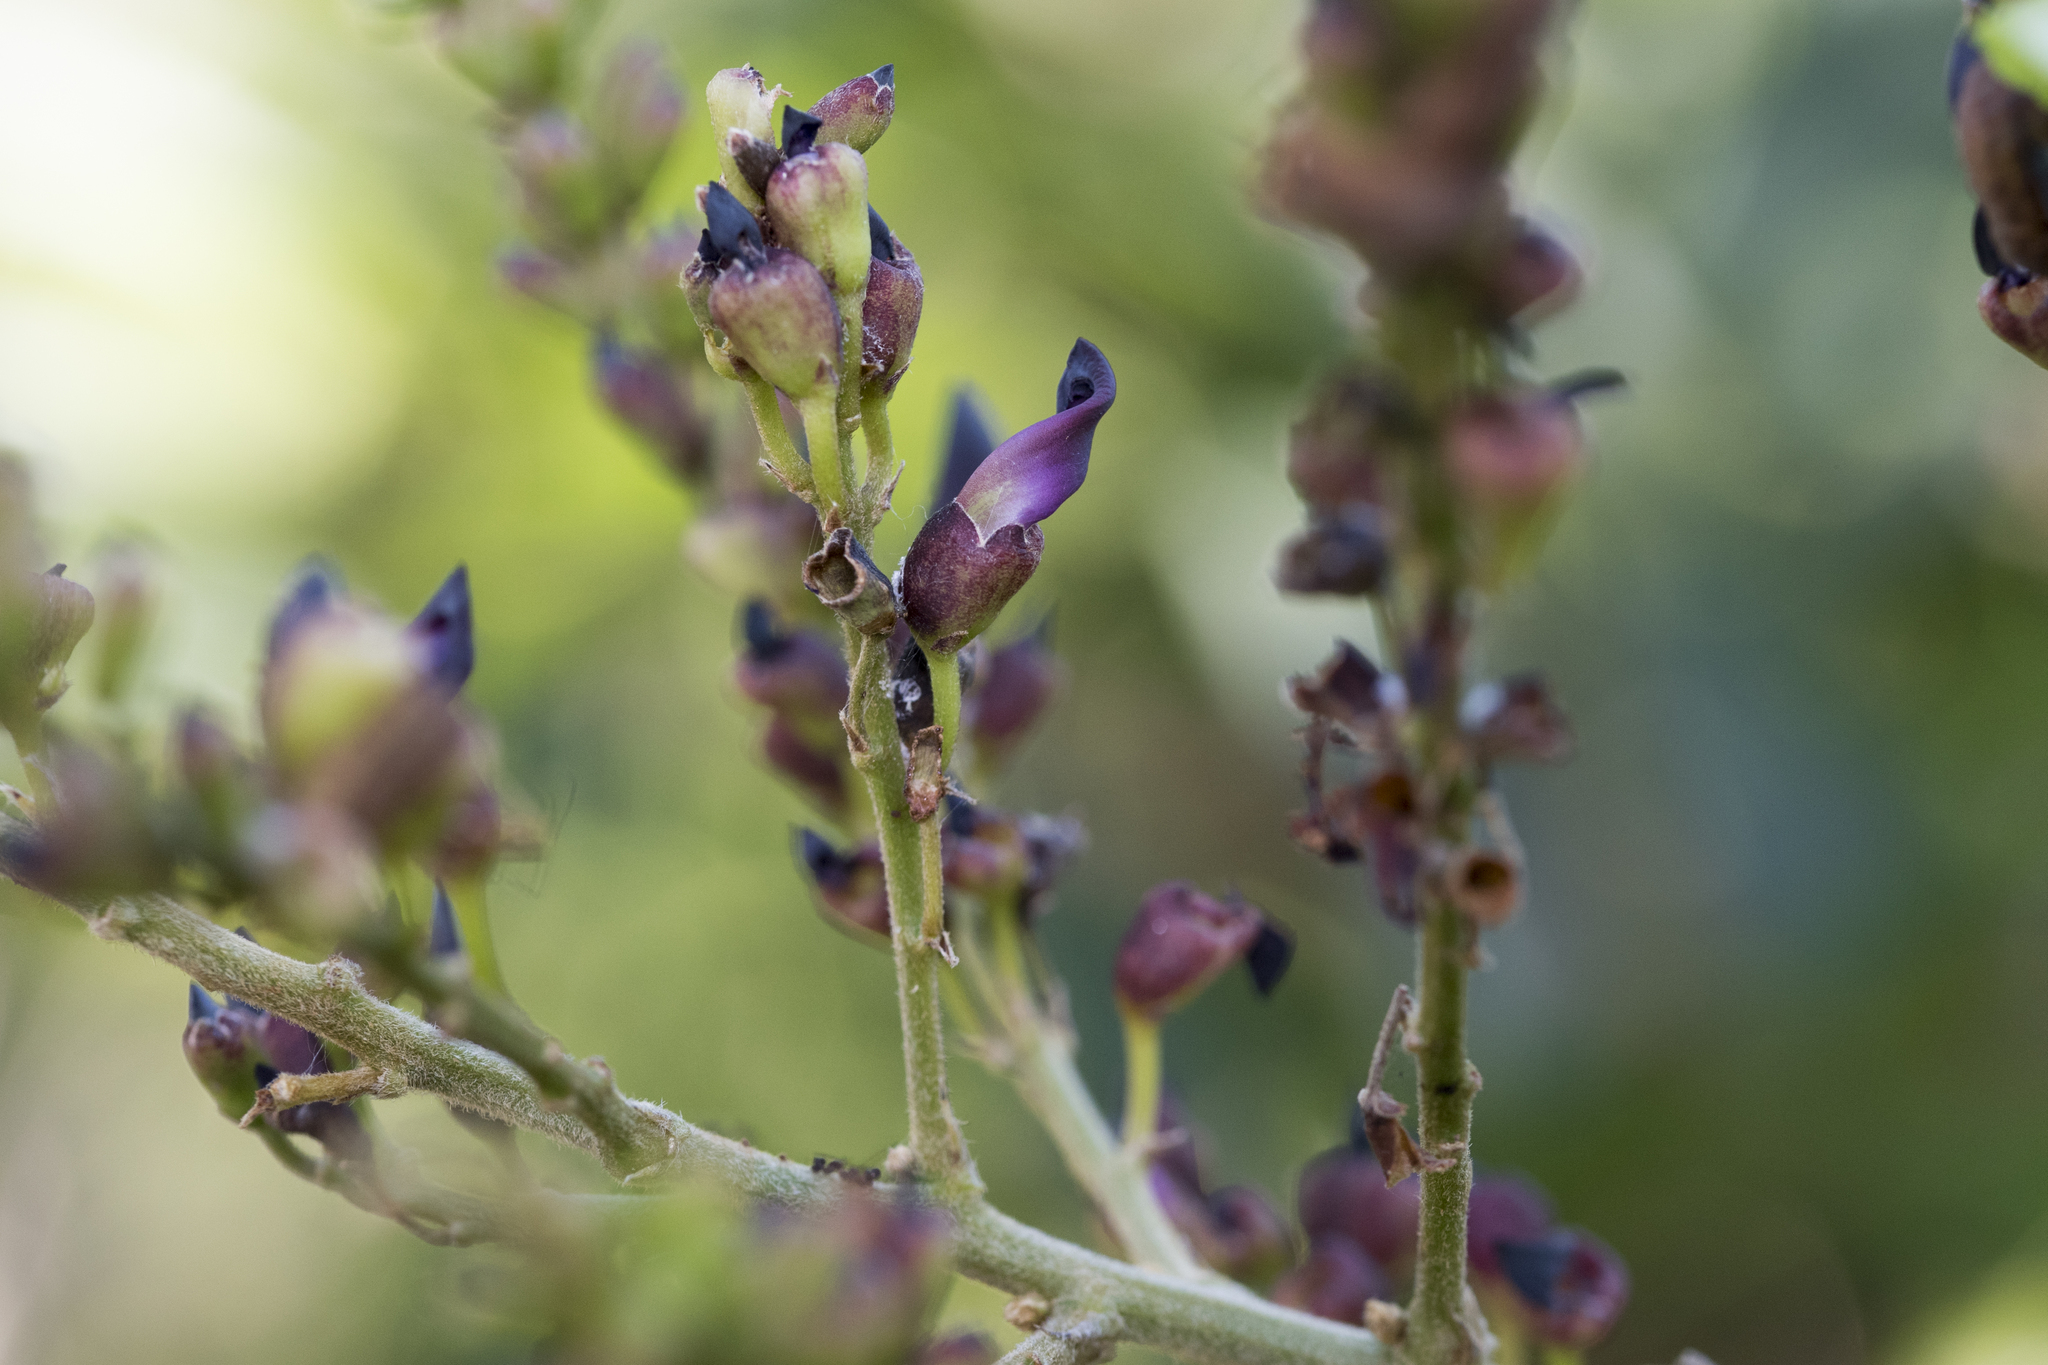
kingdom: Plantae
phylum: Tracheophyta
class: Magnoliopsida
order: Fabales
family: Fabaceae
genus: Wisteriopsis
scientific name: Wisteriopsis reticulata
